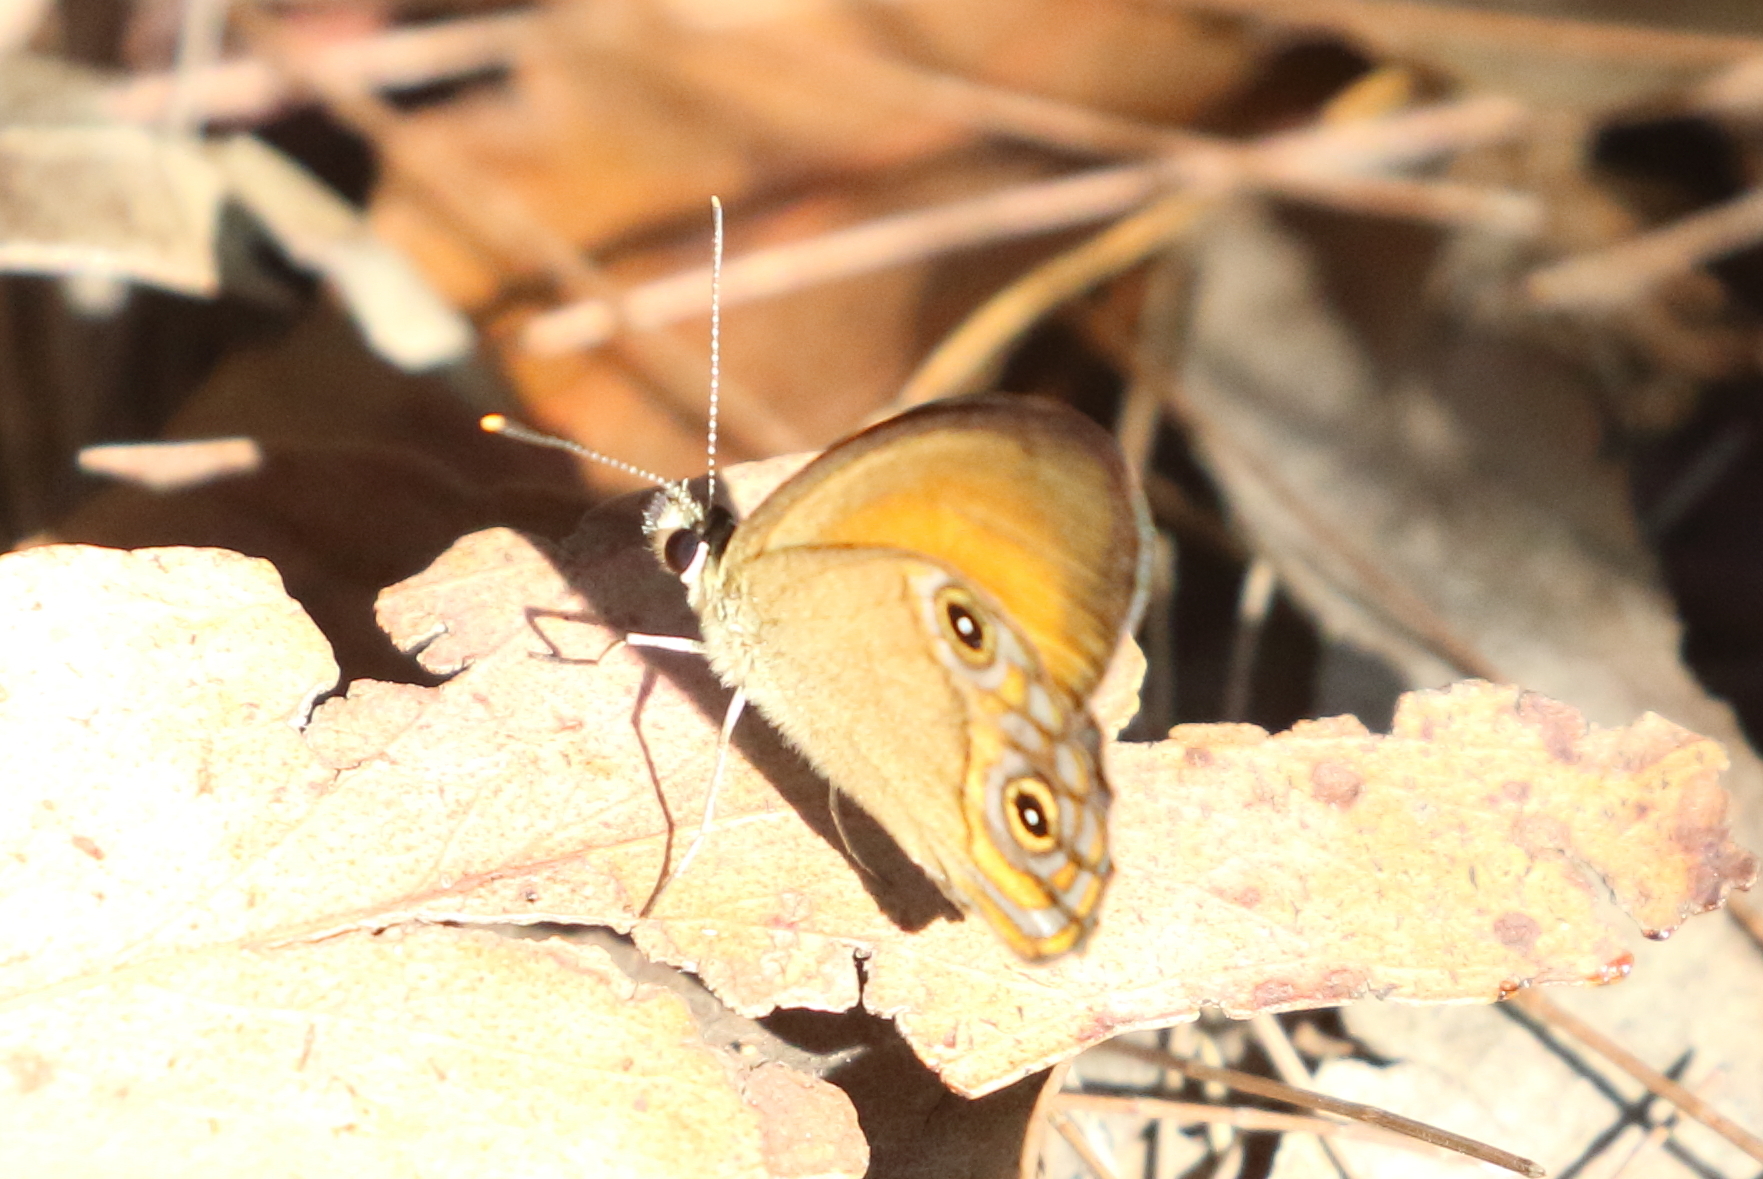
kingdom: Animalia
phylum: Arthropoda
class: Insecta
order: Lepidoptera
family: Nymphalidae
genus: Hypocysta
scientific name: Hypocysta adiante
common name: Orange ringlet
